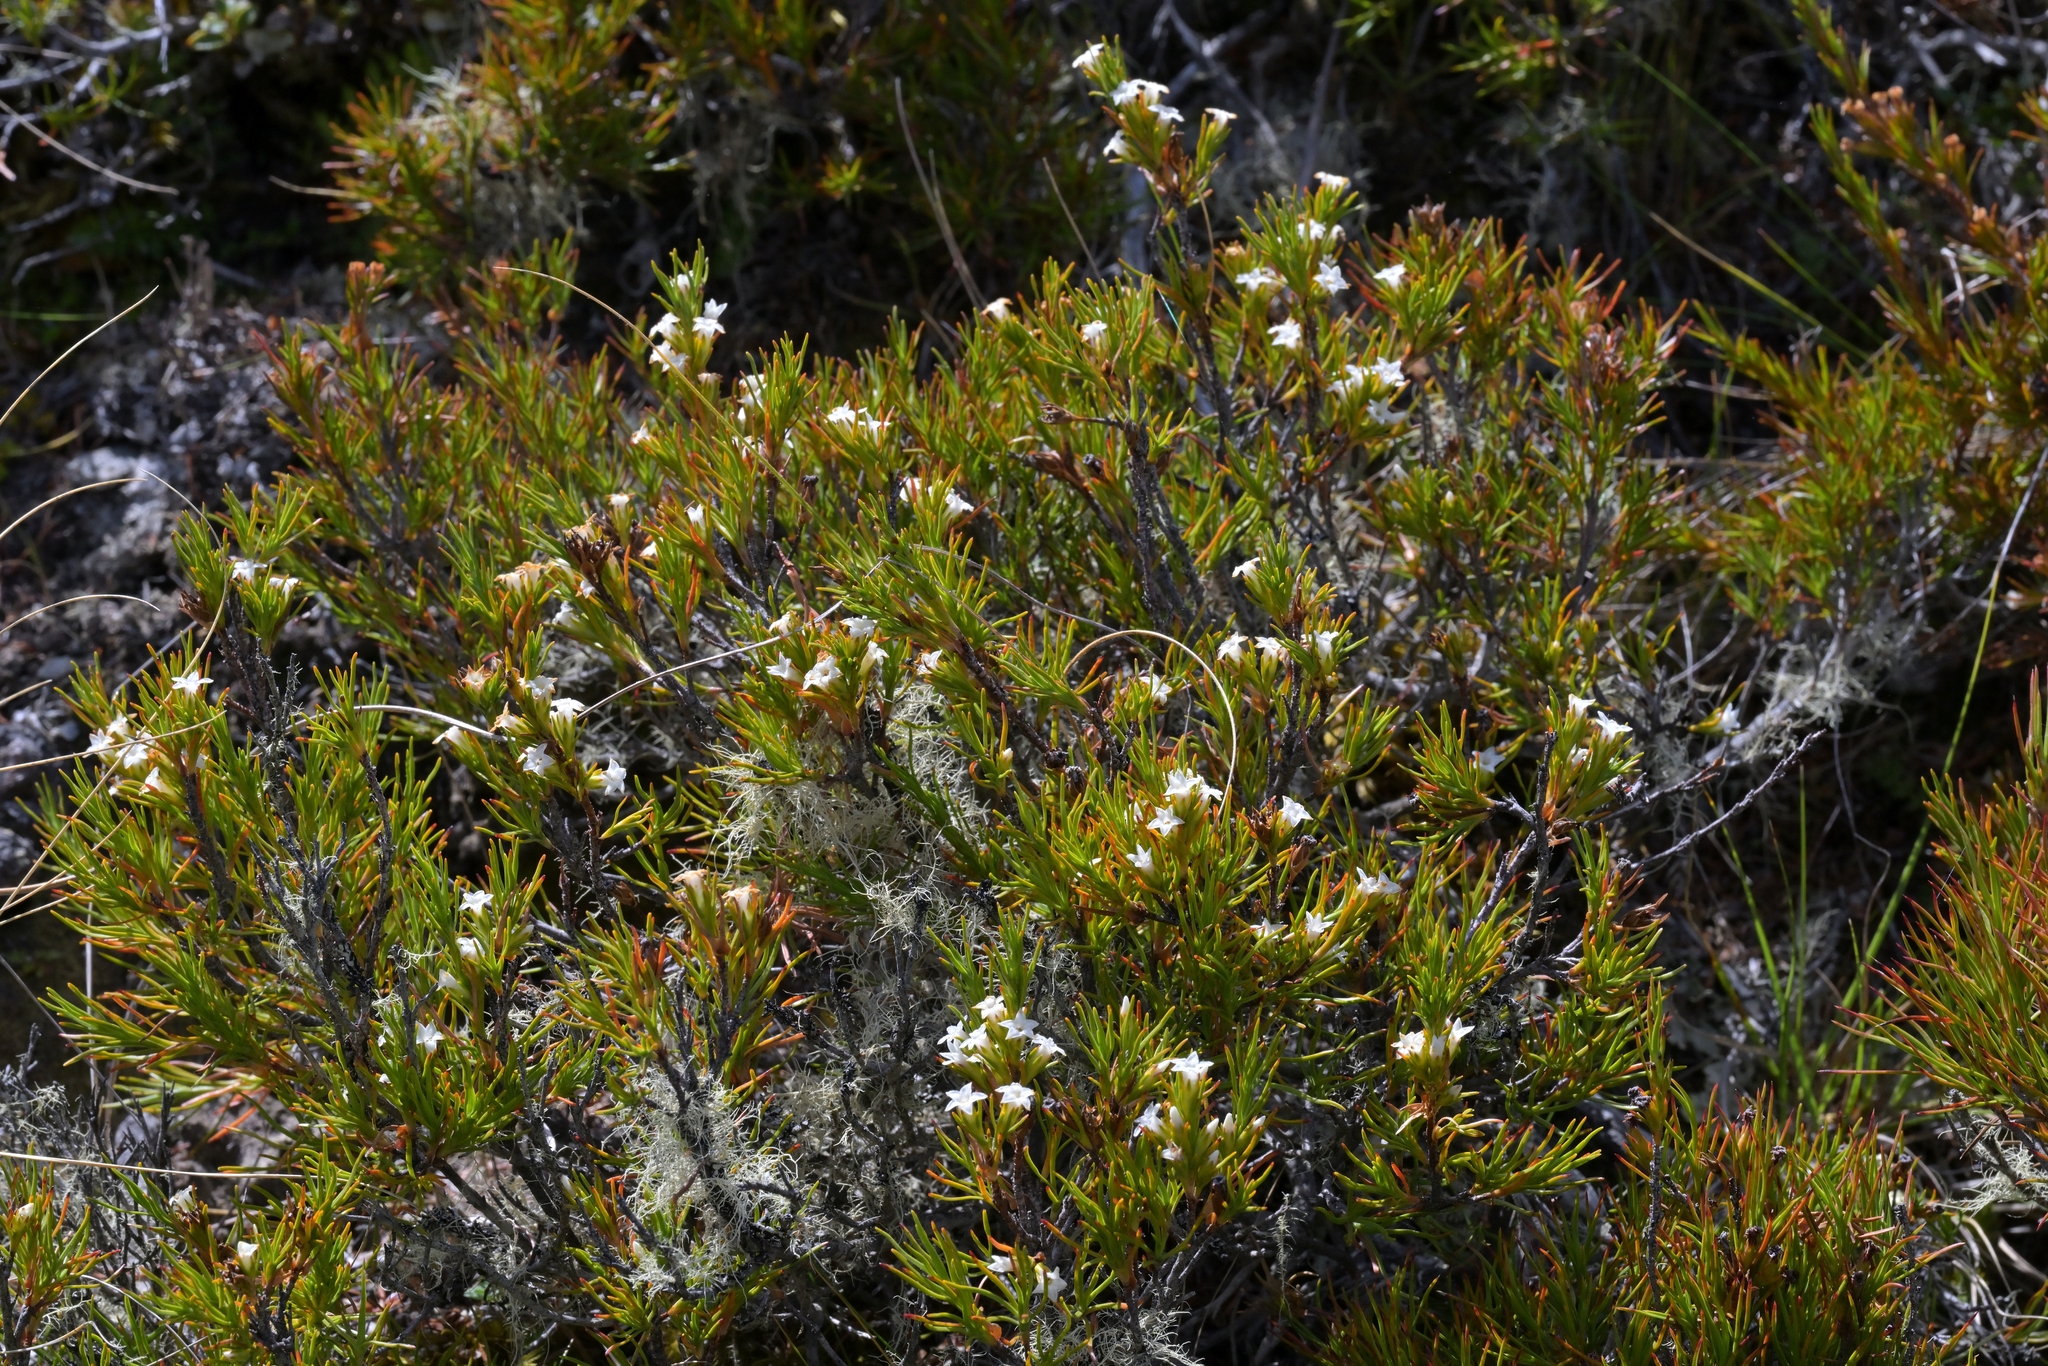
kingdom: Plantae
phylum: Tracheophyta
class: Magnoliopsida
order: Ericales
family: Ericaceae
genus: Dracophyllum
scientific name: Dracophyllum rosmarinifolium
